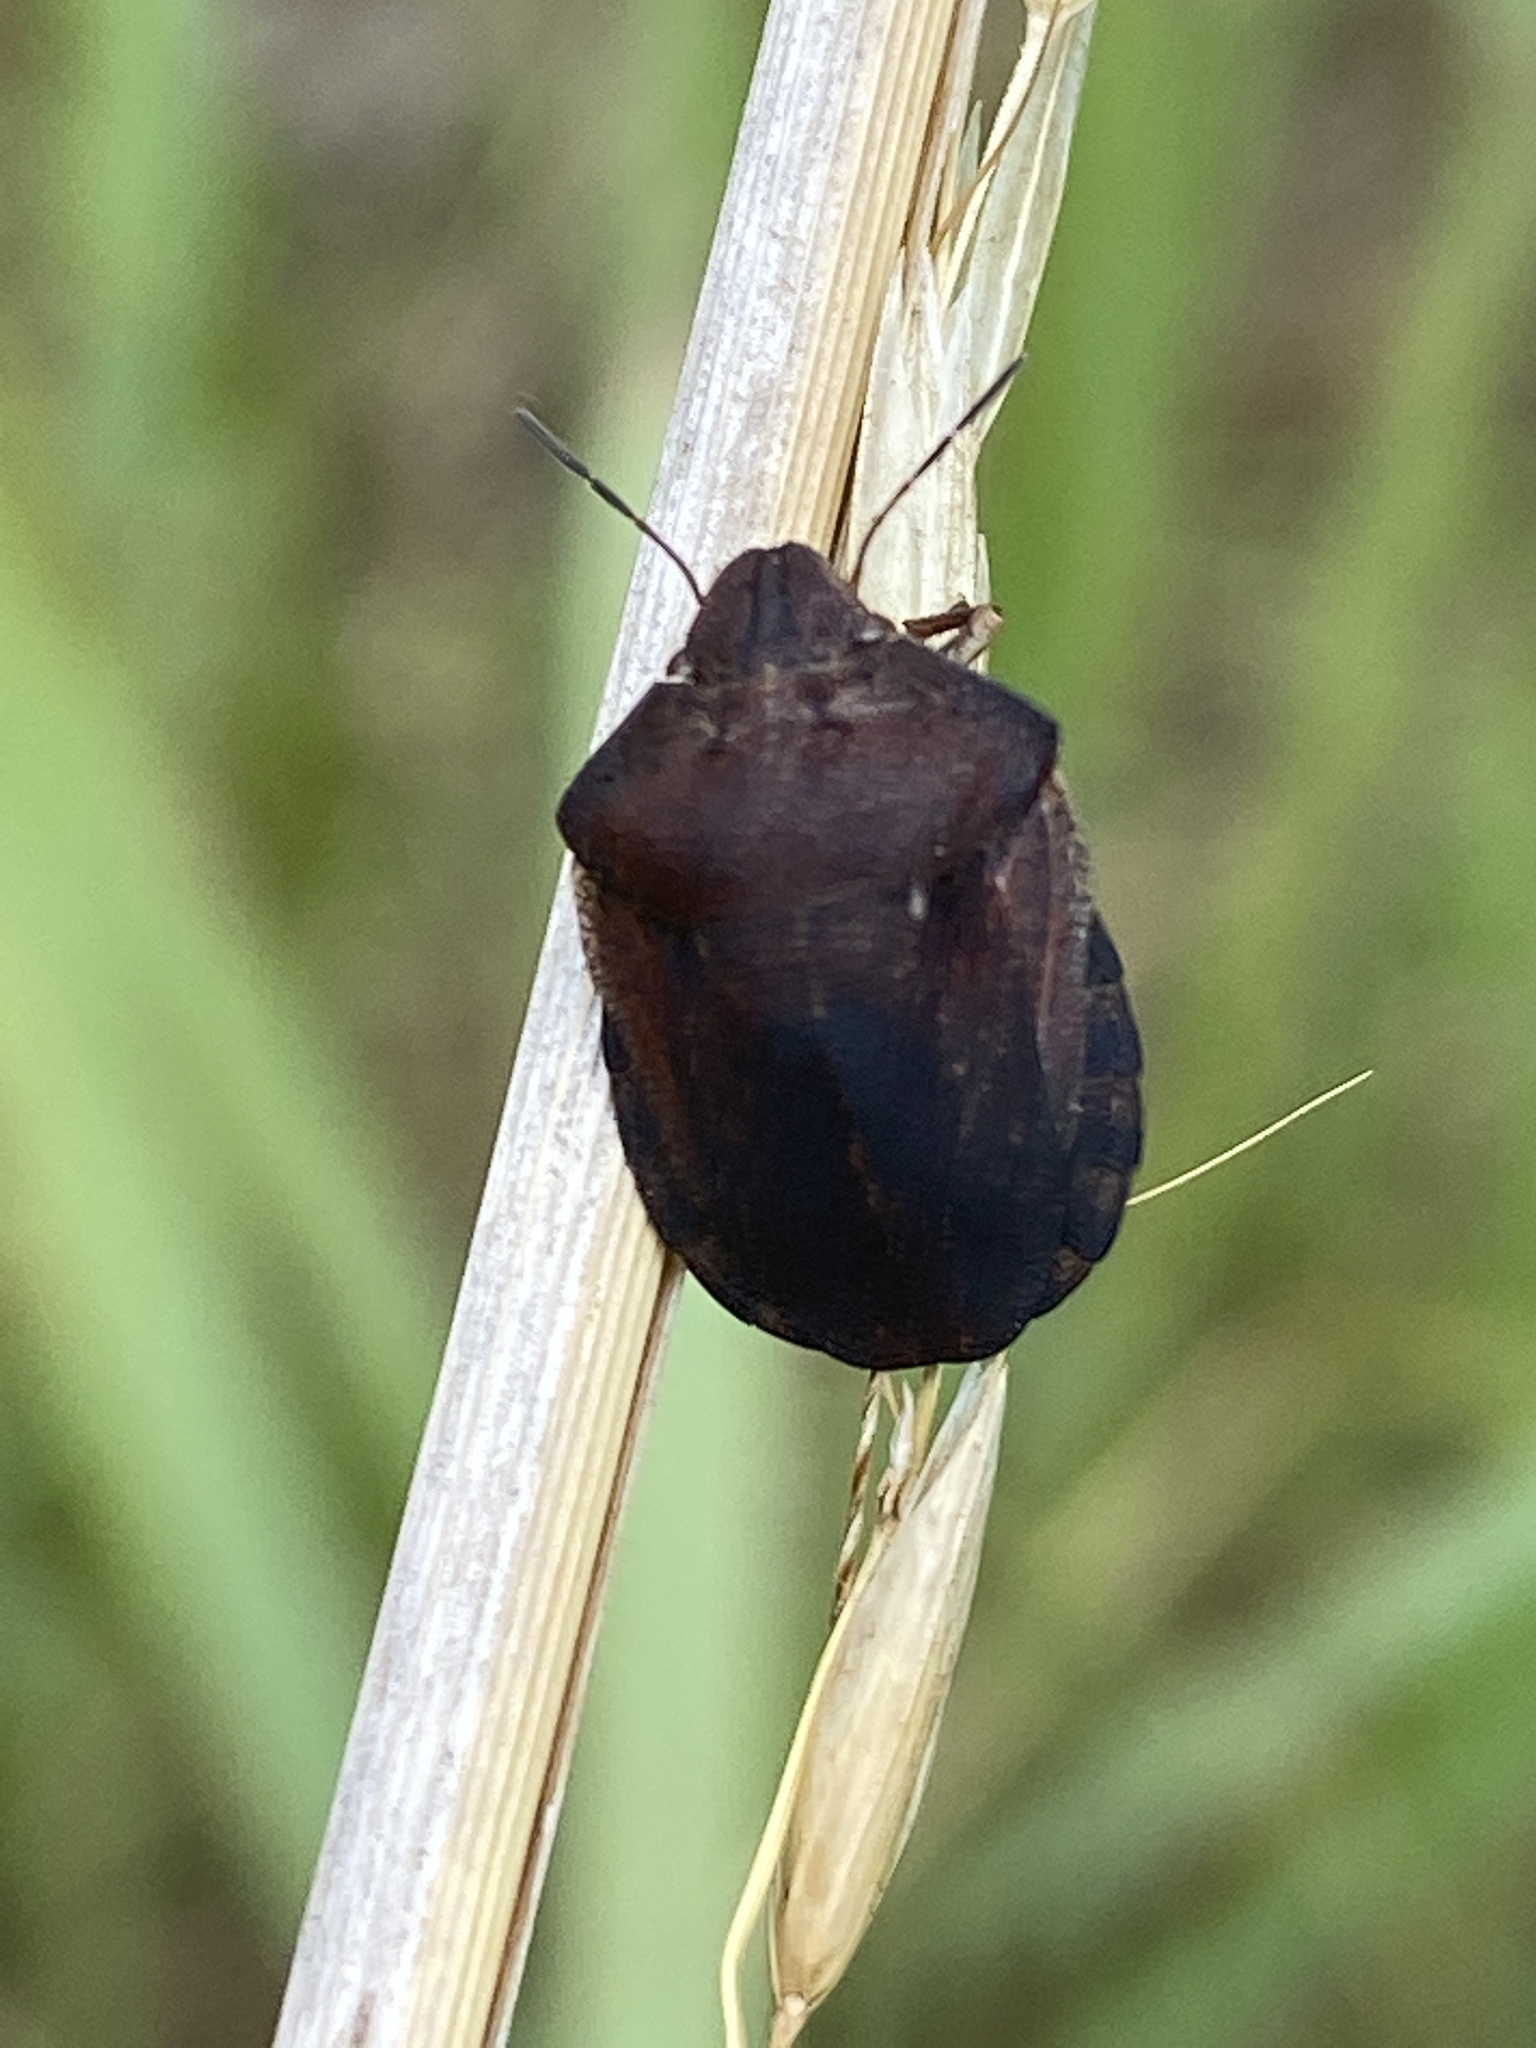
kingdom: Animalia
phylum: Arthropoda
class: Insecta
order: Hemiptera
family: Scutelleridae
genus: Eurygaster
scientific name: Eurygaster testudinaria
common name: Tortoise bug
